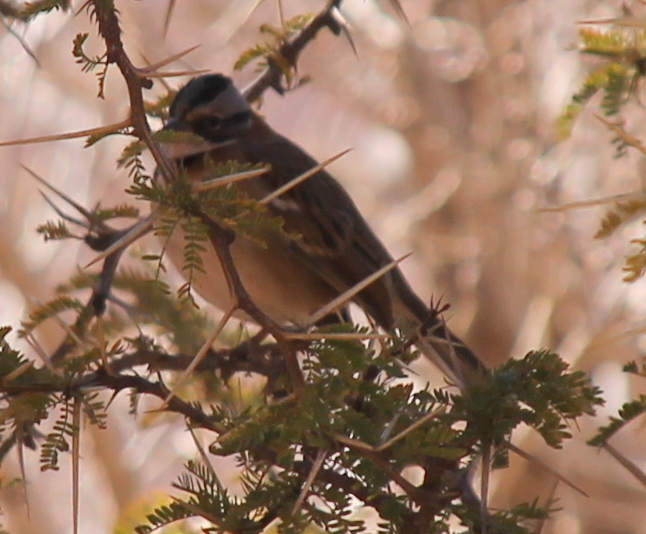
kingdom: Animalia
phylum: Chordata
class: Aves
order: Passeriformes
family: Passerellidae
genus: Zonotrichia
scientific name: Zonotrichia capensis
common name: Rufous-collared sparrow
